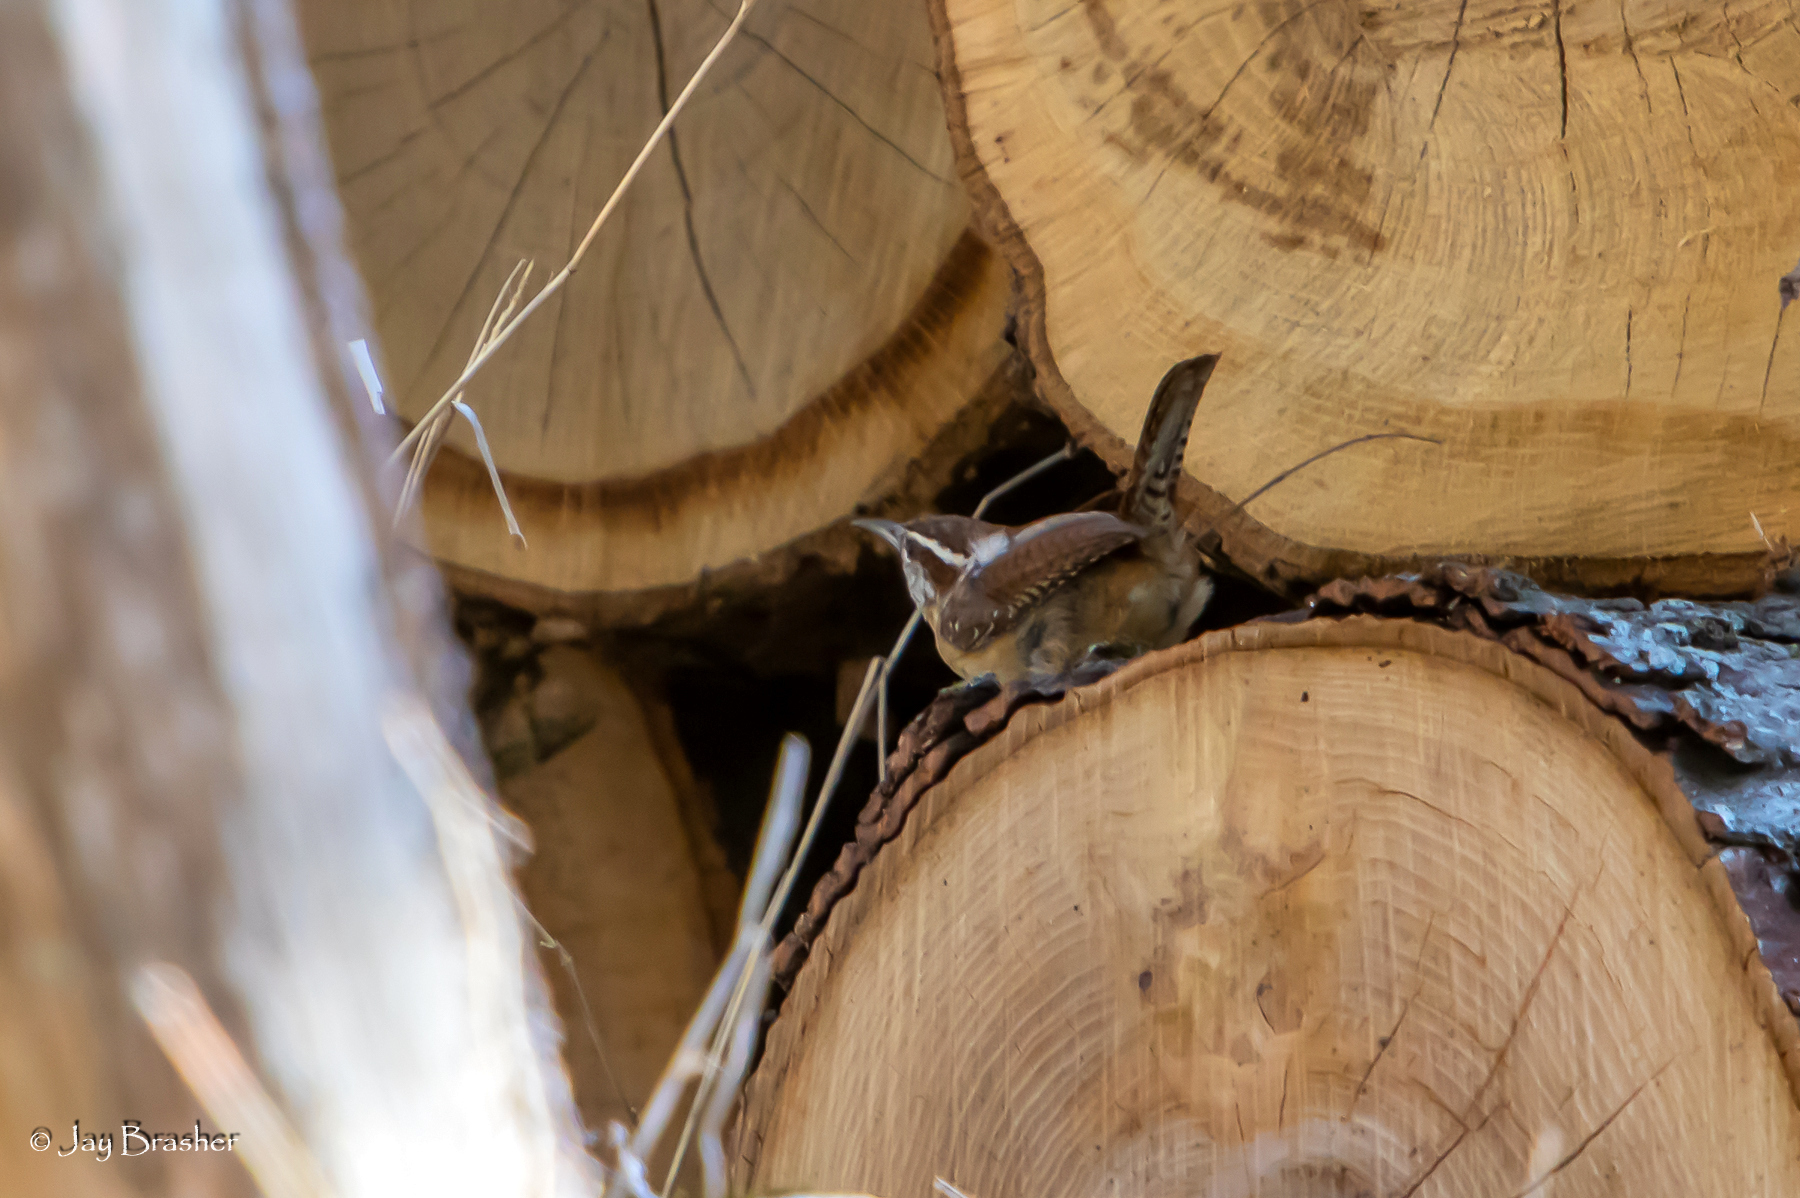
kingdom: Animalia
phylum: Chordata
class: Aves
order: Passeriformes
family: Troglodytidae
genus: Thryothorus
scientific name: Thryothorus ludovicianus
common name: Carolina wren
